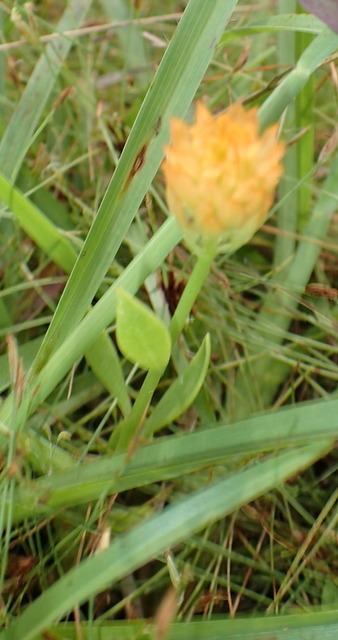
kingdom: Plantae
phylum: Tracheophyta
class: Magnoliopsida
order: Fabales
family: Polygalaceae
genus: Polygala
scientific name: Polygala lutea
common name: Orange milkwort
